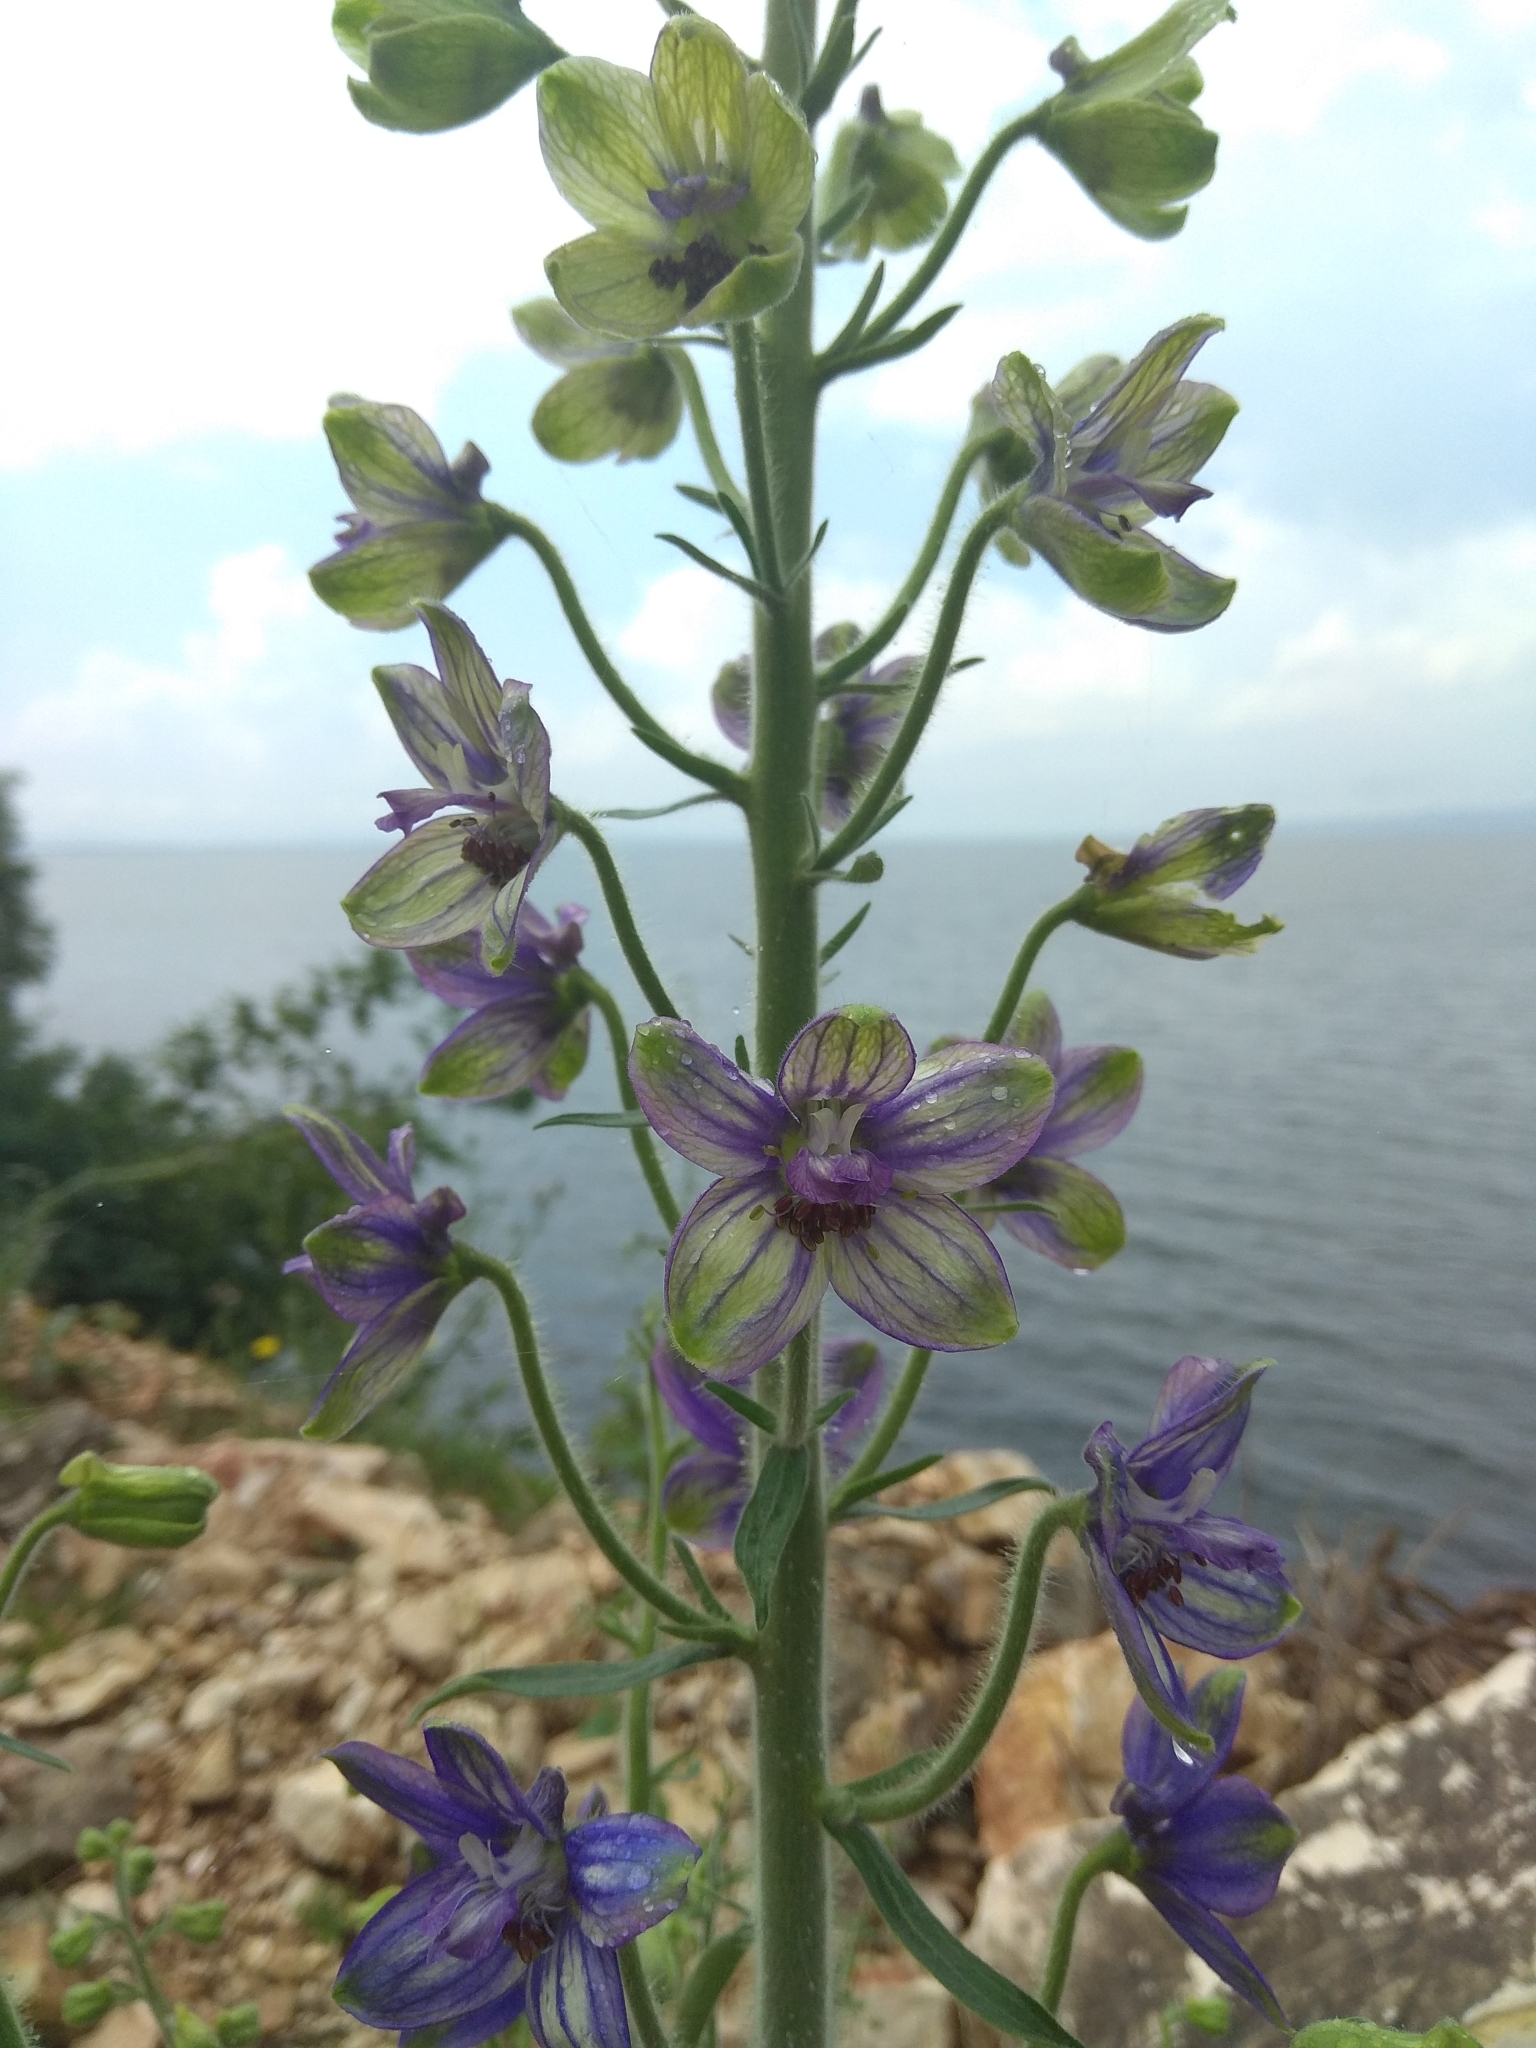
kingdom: Plantae
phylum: Tracheophyta
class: Magnoliopsida
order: Ranunculales
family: Ranunculaceae
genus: Staphisagria
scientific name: Staphisagria macrosperma
